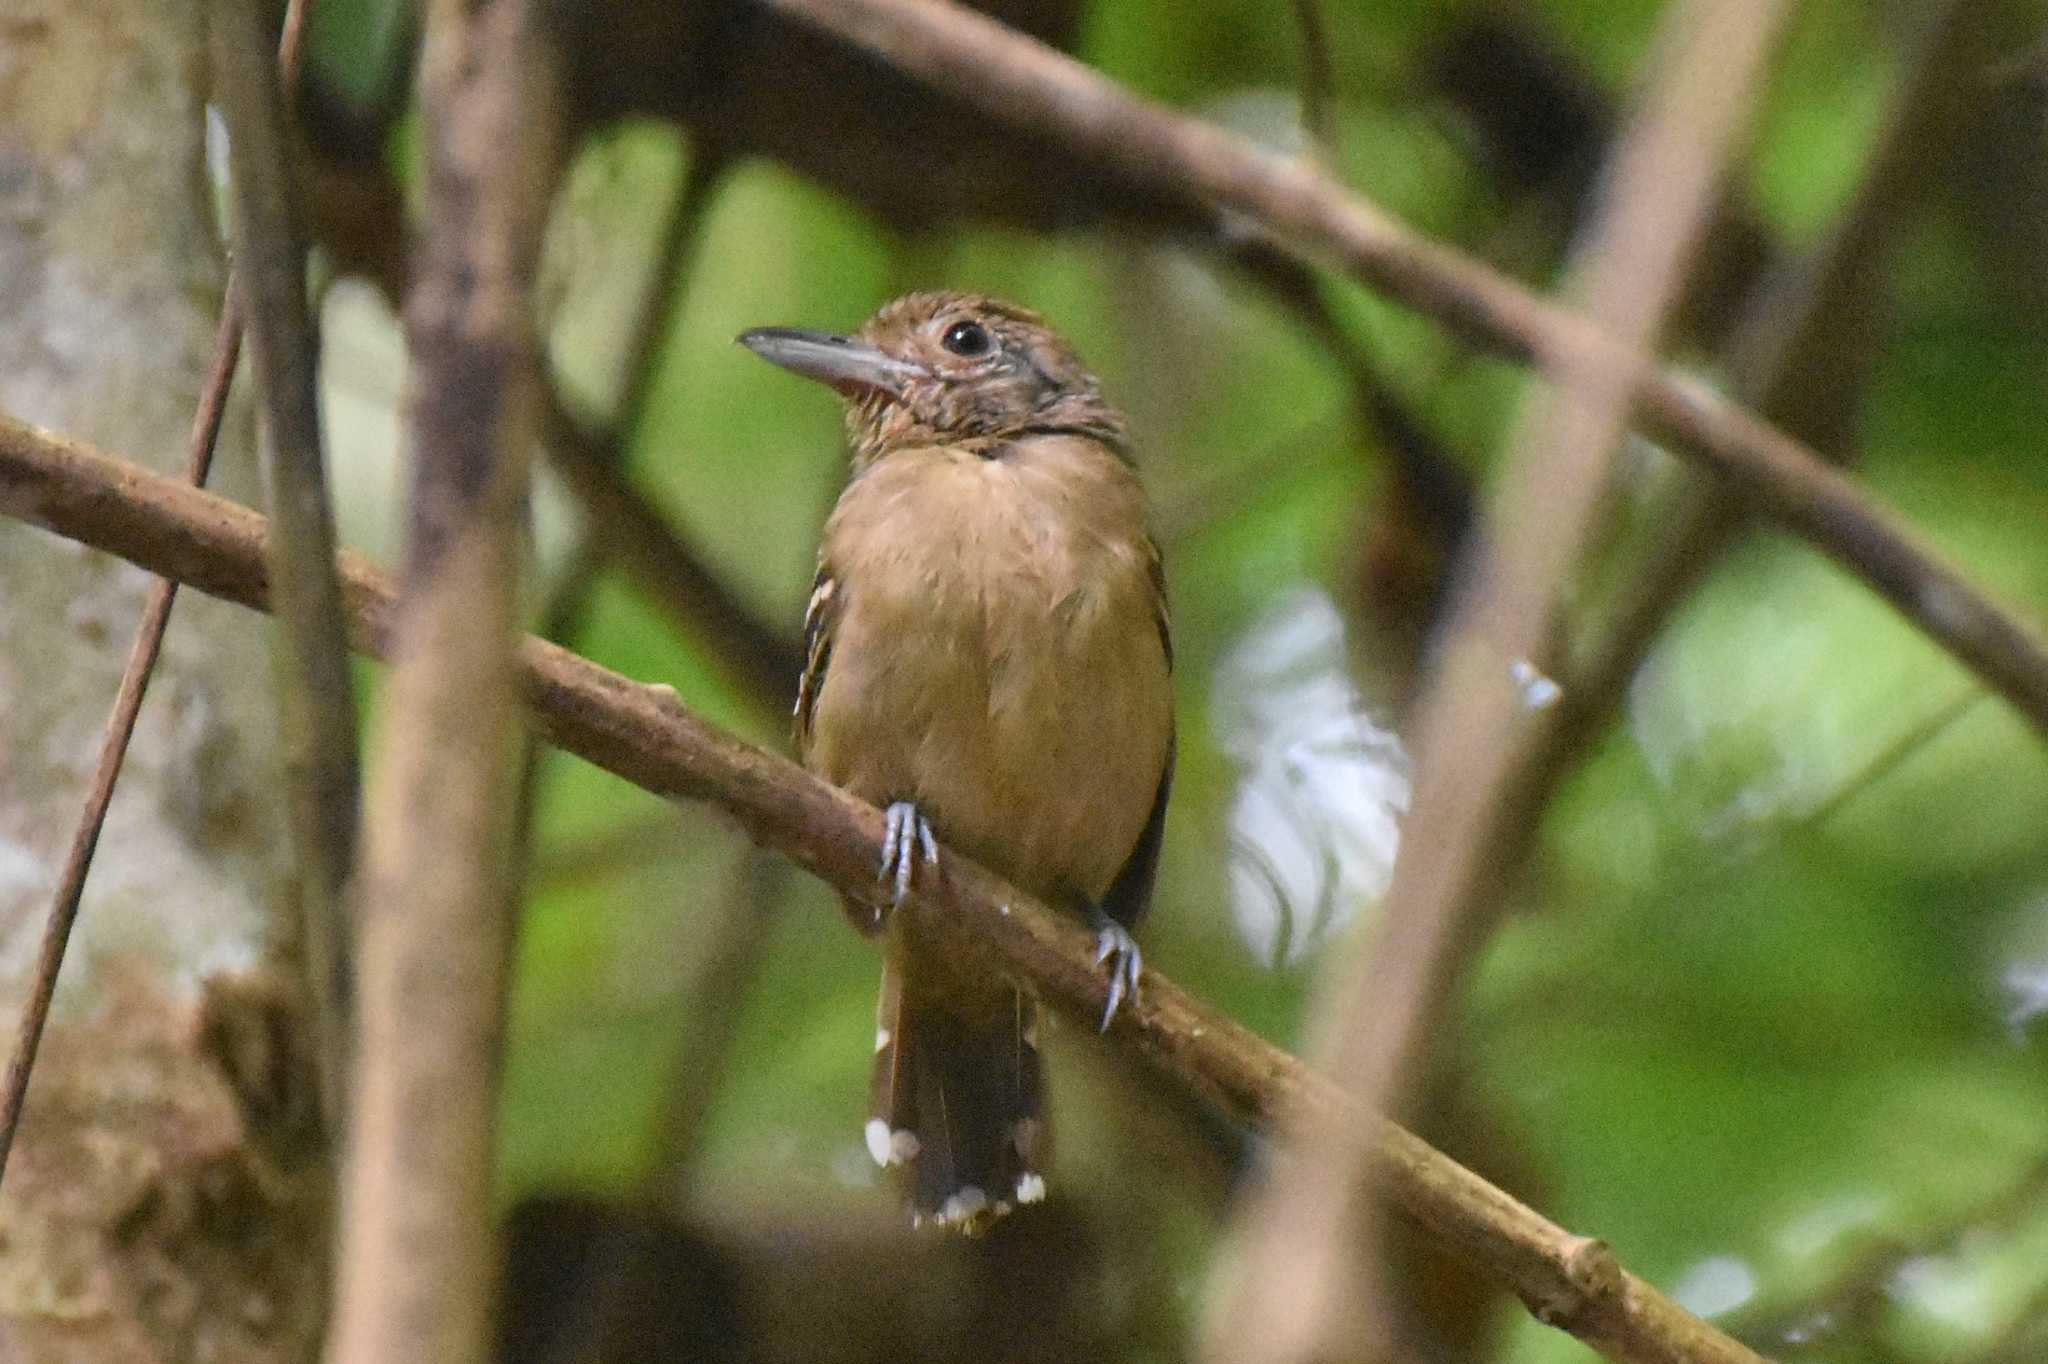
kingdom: Animalia
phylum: Chordata
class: Aves
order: Passeriformes
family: Thamnophilidae
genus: Thamnophilus
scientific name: Thamnophilus atrinucha
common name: Black-crowned antshrike
